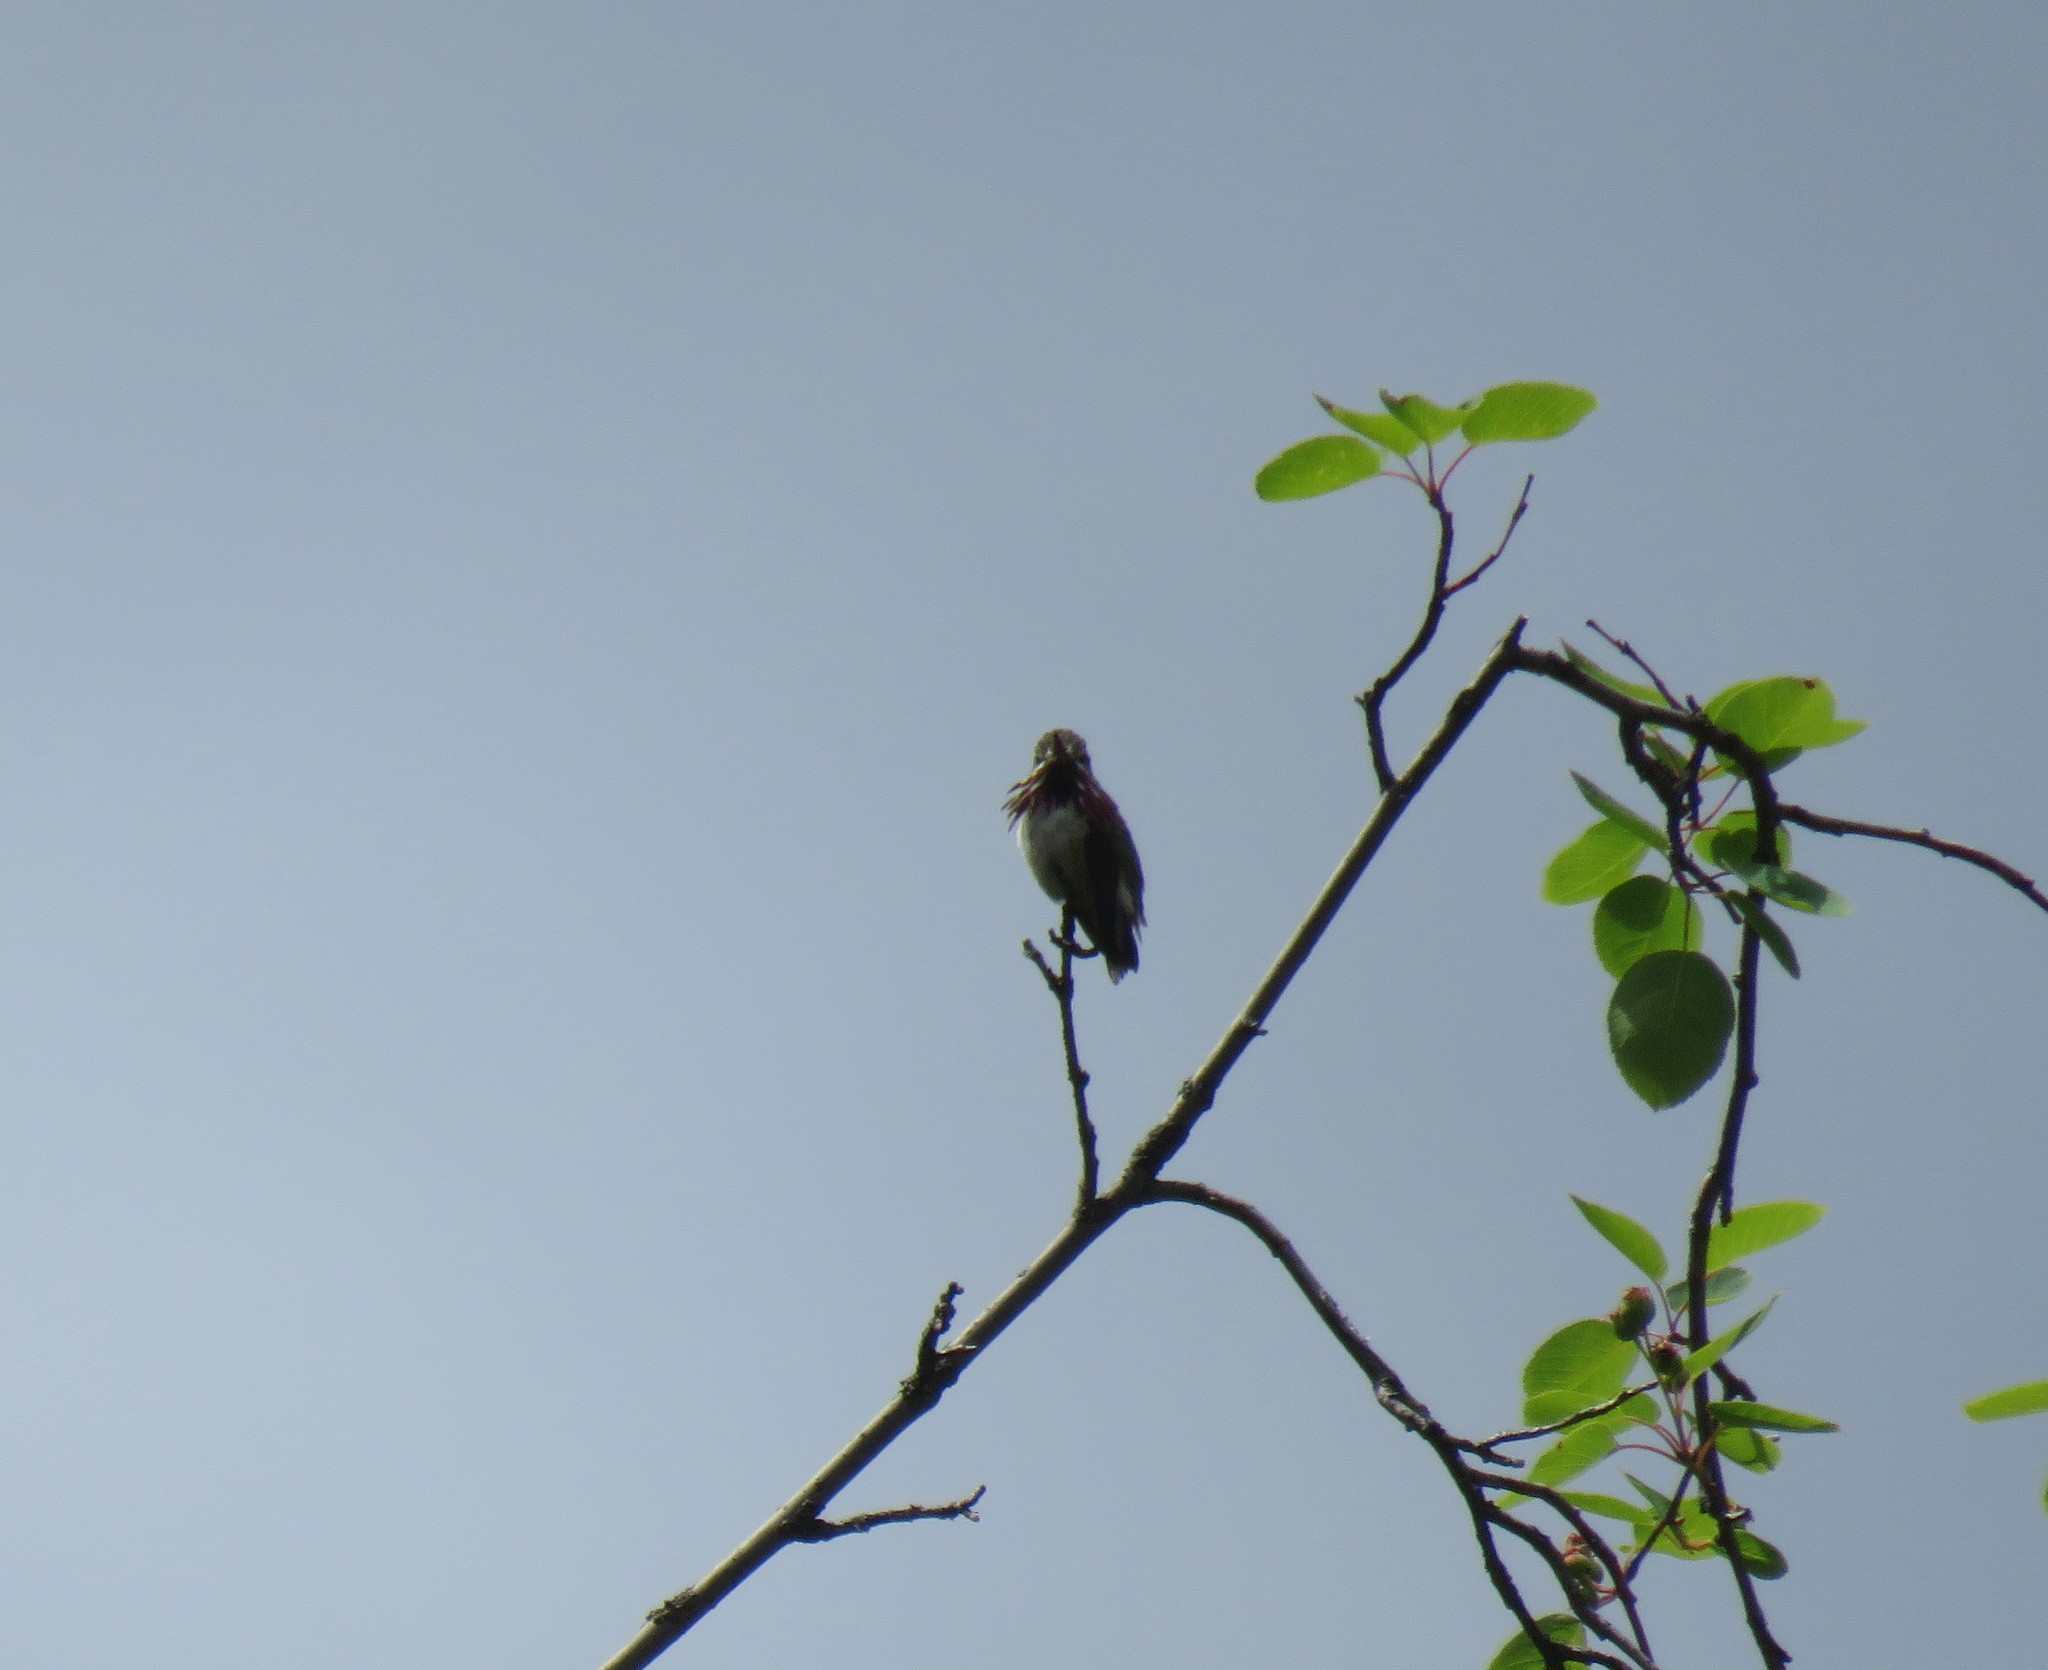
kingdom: Animalia
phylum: Chordata
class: Aves
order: Apodiformes
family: Trochilidae
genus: Selasphorus
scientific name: Selasphorus calliope
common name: Calliope hummingbird
